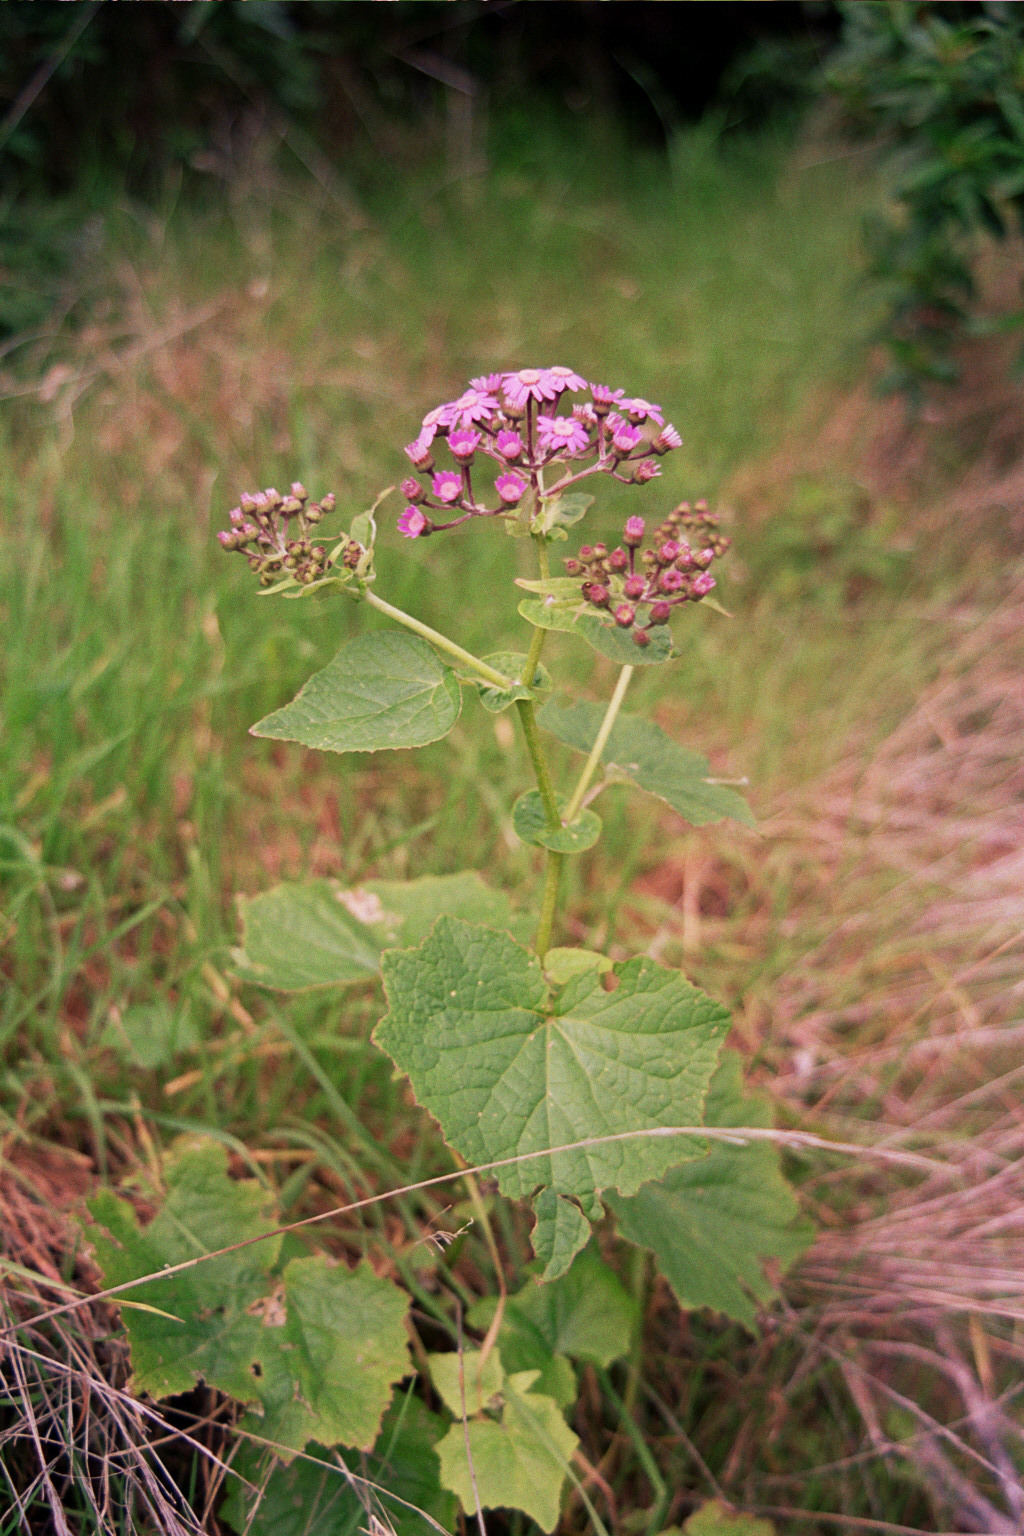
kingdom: Plantae
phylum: Tracheophyta
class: Magnoliopsida
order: Asterales
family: Asteraceae
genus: Pericallis
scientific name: Pericallis steetzii
